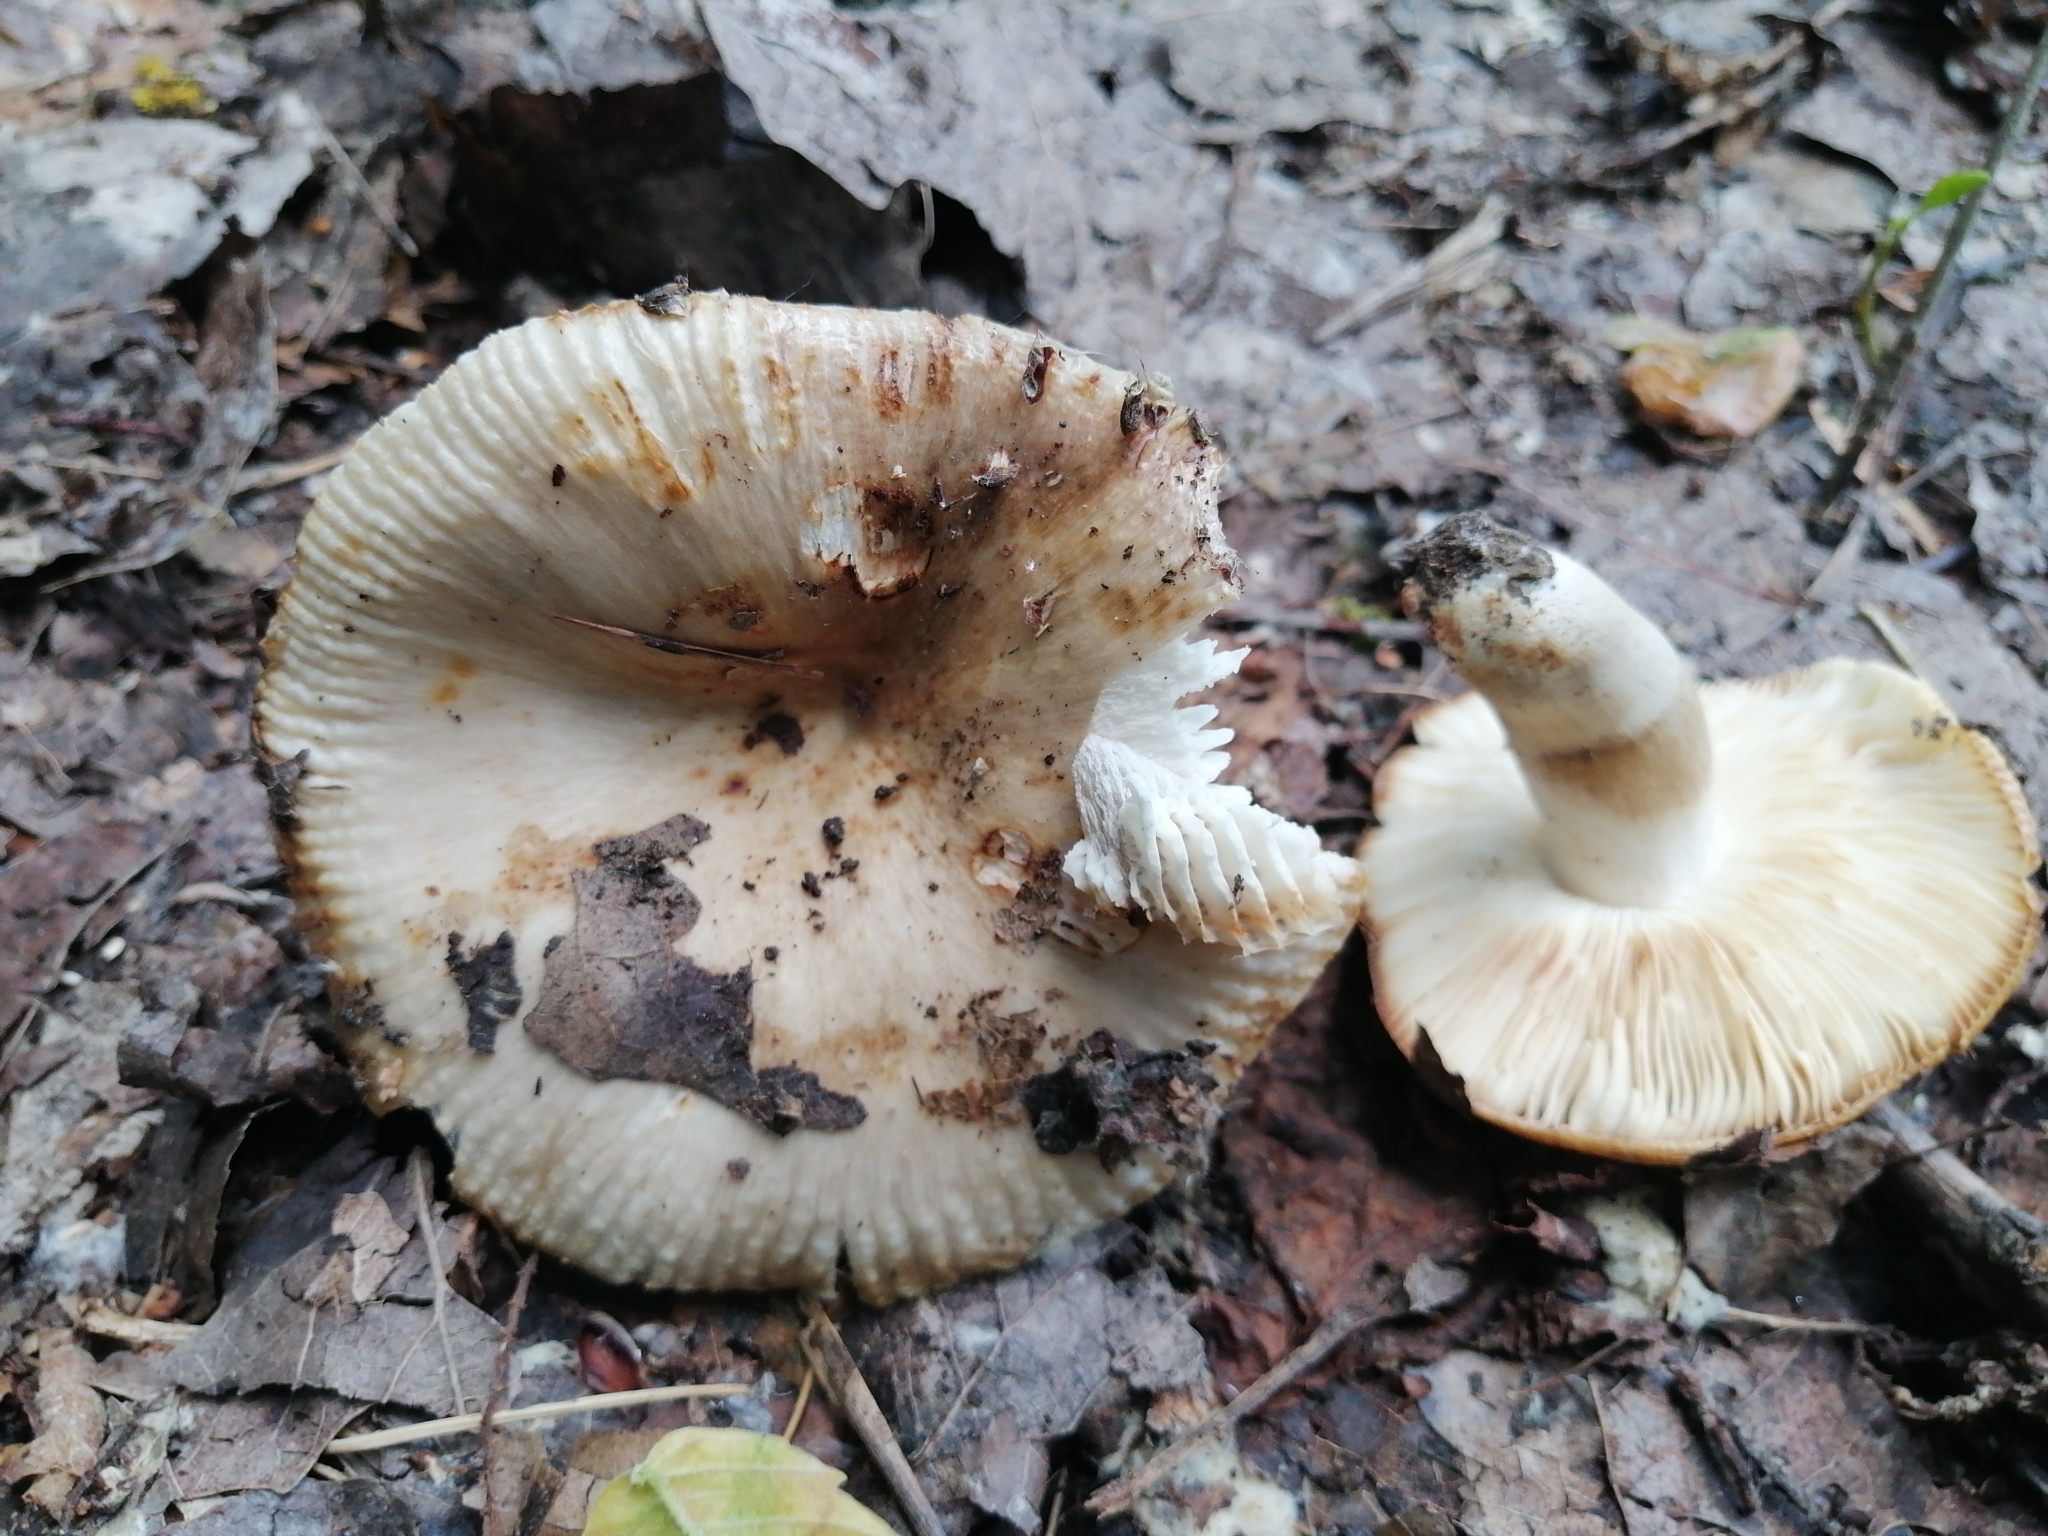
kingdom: Fungi
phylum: Basidiomycota
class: Agaricomycetes
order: Russulales
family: Russulaceae
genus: Russula
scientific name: Russula praetervisa
